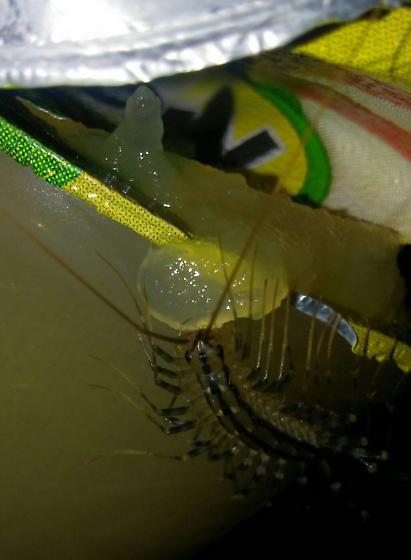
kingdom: Animalia
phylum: Arthropoda
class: Chilopoda
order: Scutigeromorpha
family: Scutigeridae
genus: Scutigera
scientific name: Scutigera coleoptrata
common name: House centipede
